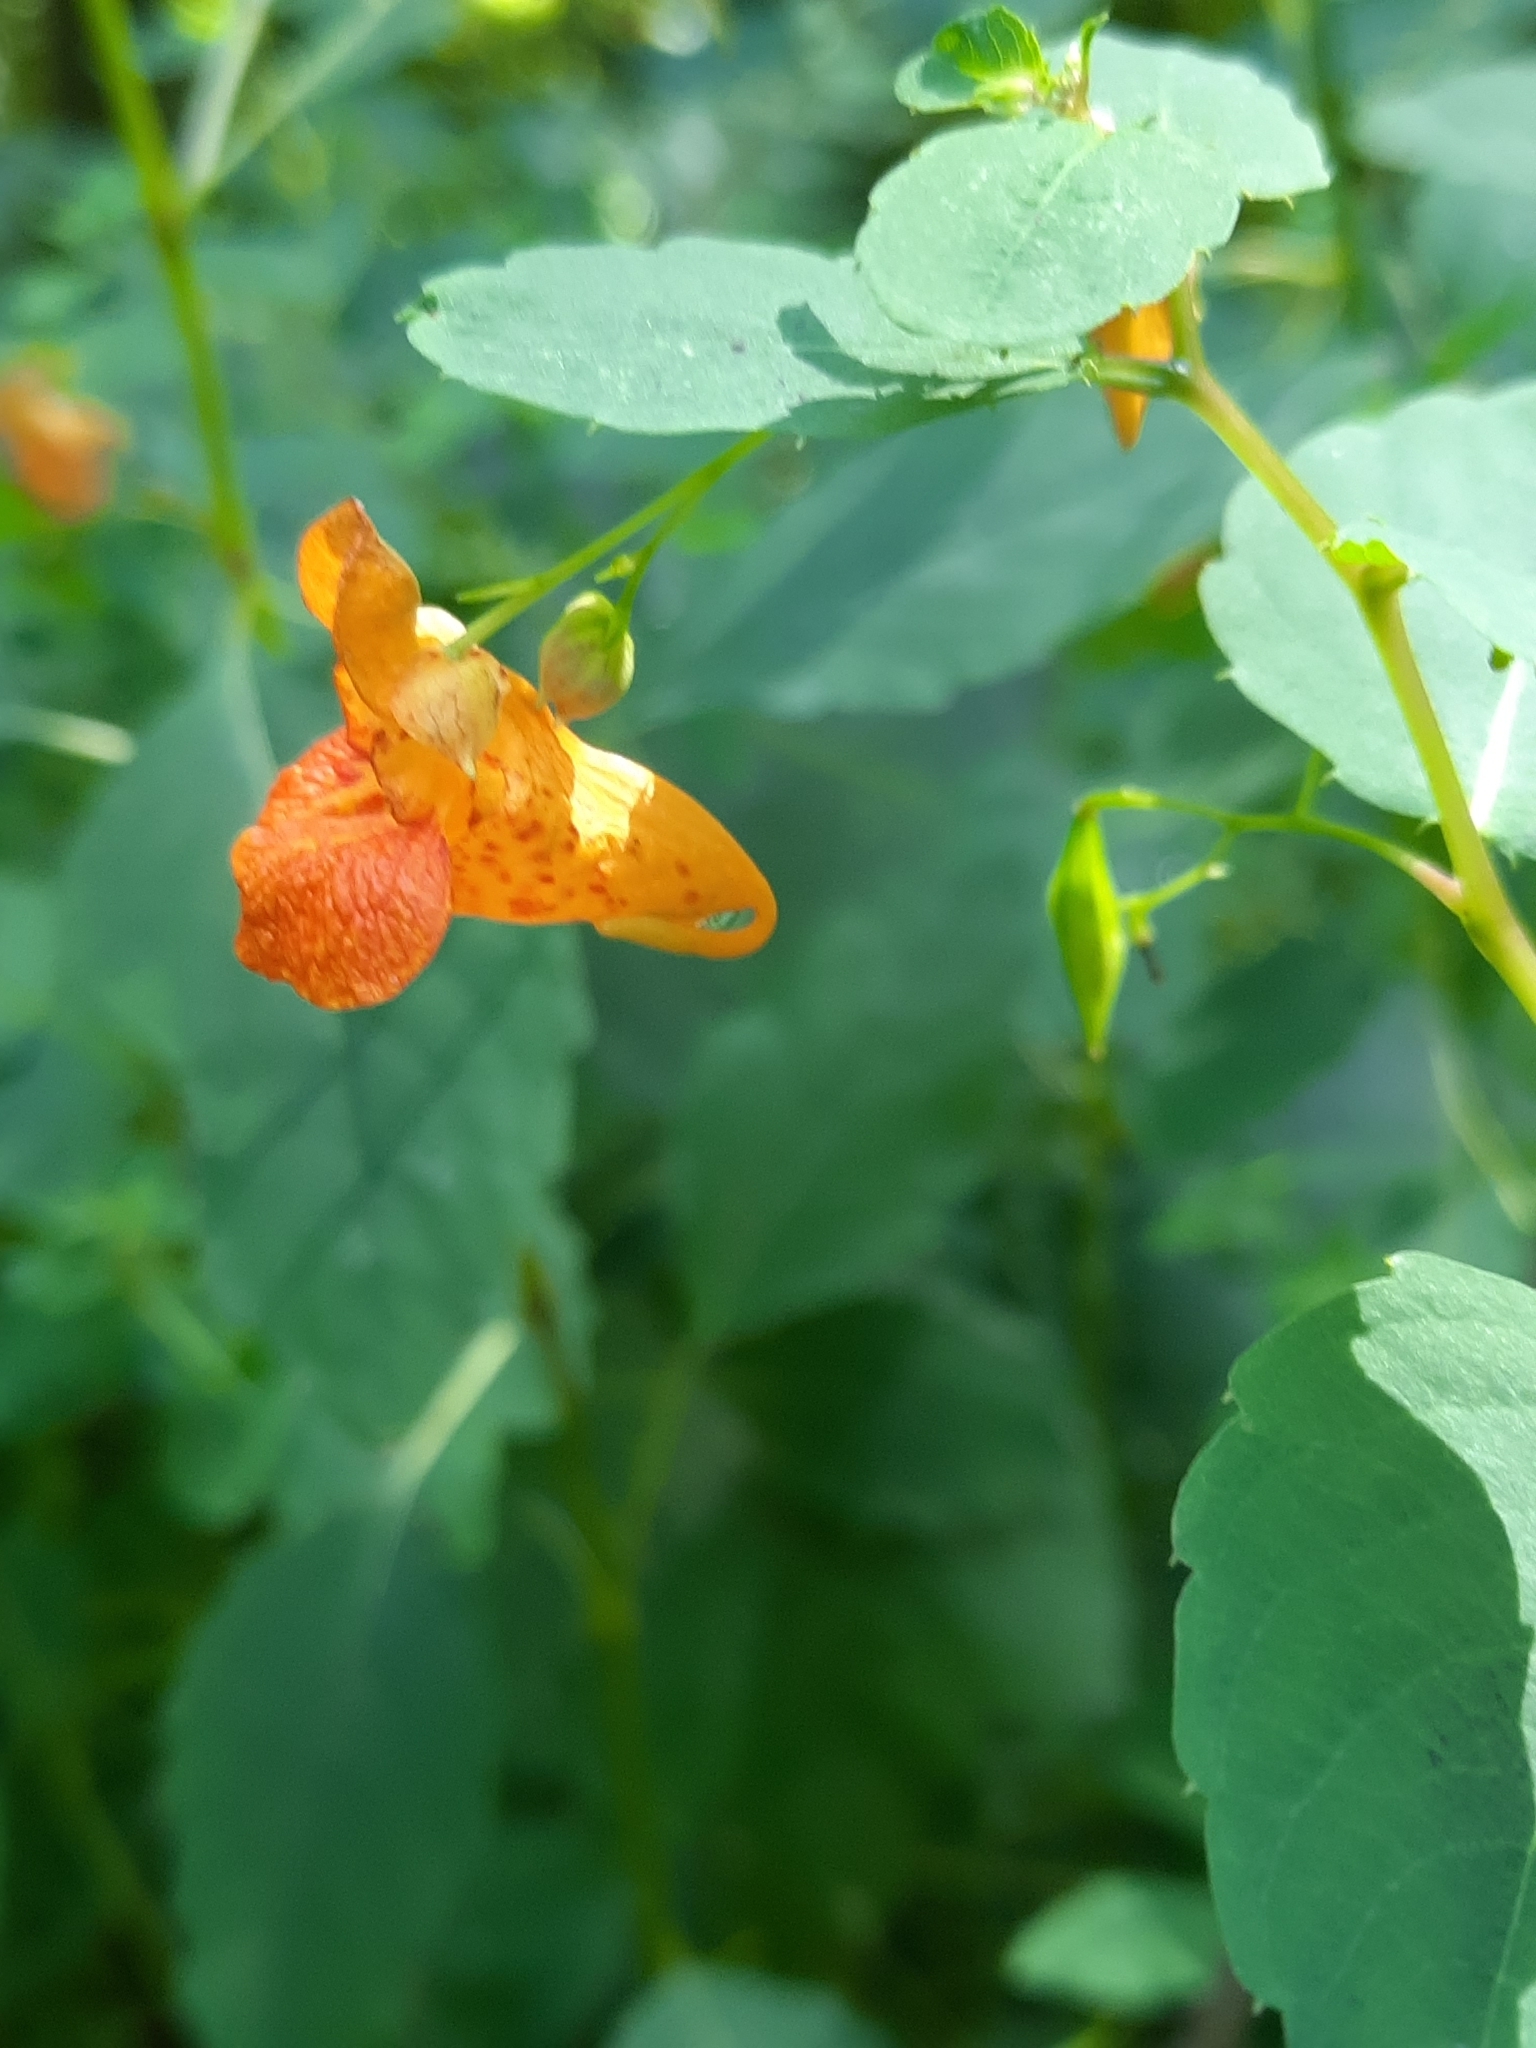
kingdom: Plantae
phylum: Tracheophyta
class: Magnoliopsida
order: Ericales
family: Balsaminaceae
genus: Impatiens
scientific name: Impatiens capensis
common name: Orange balsam
